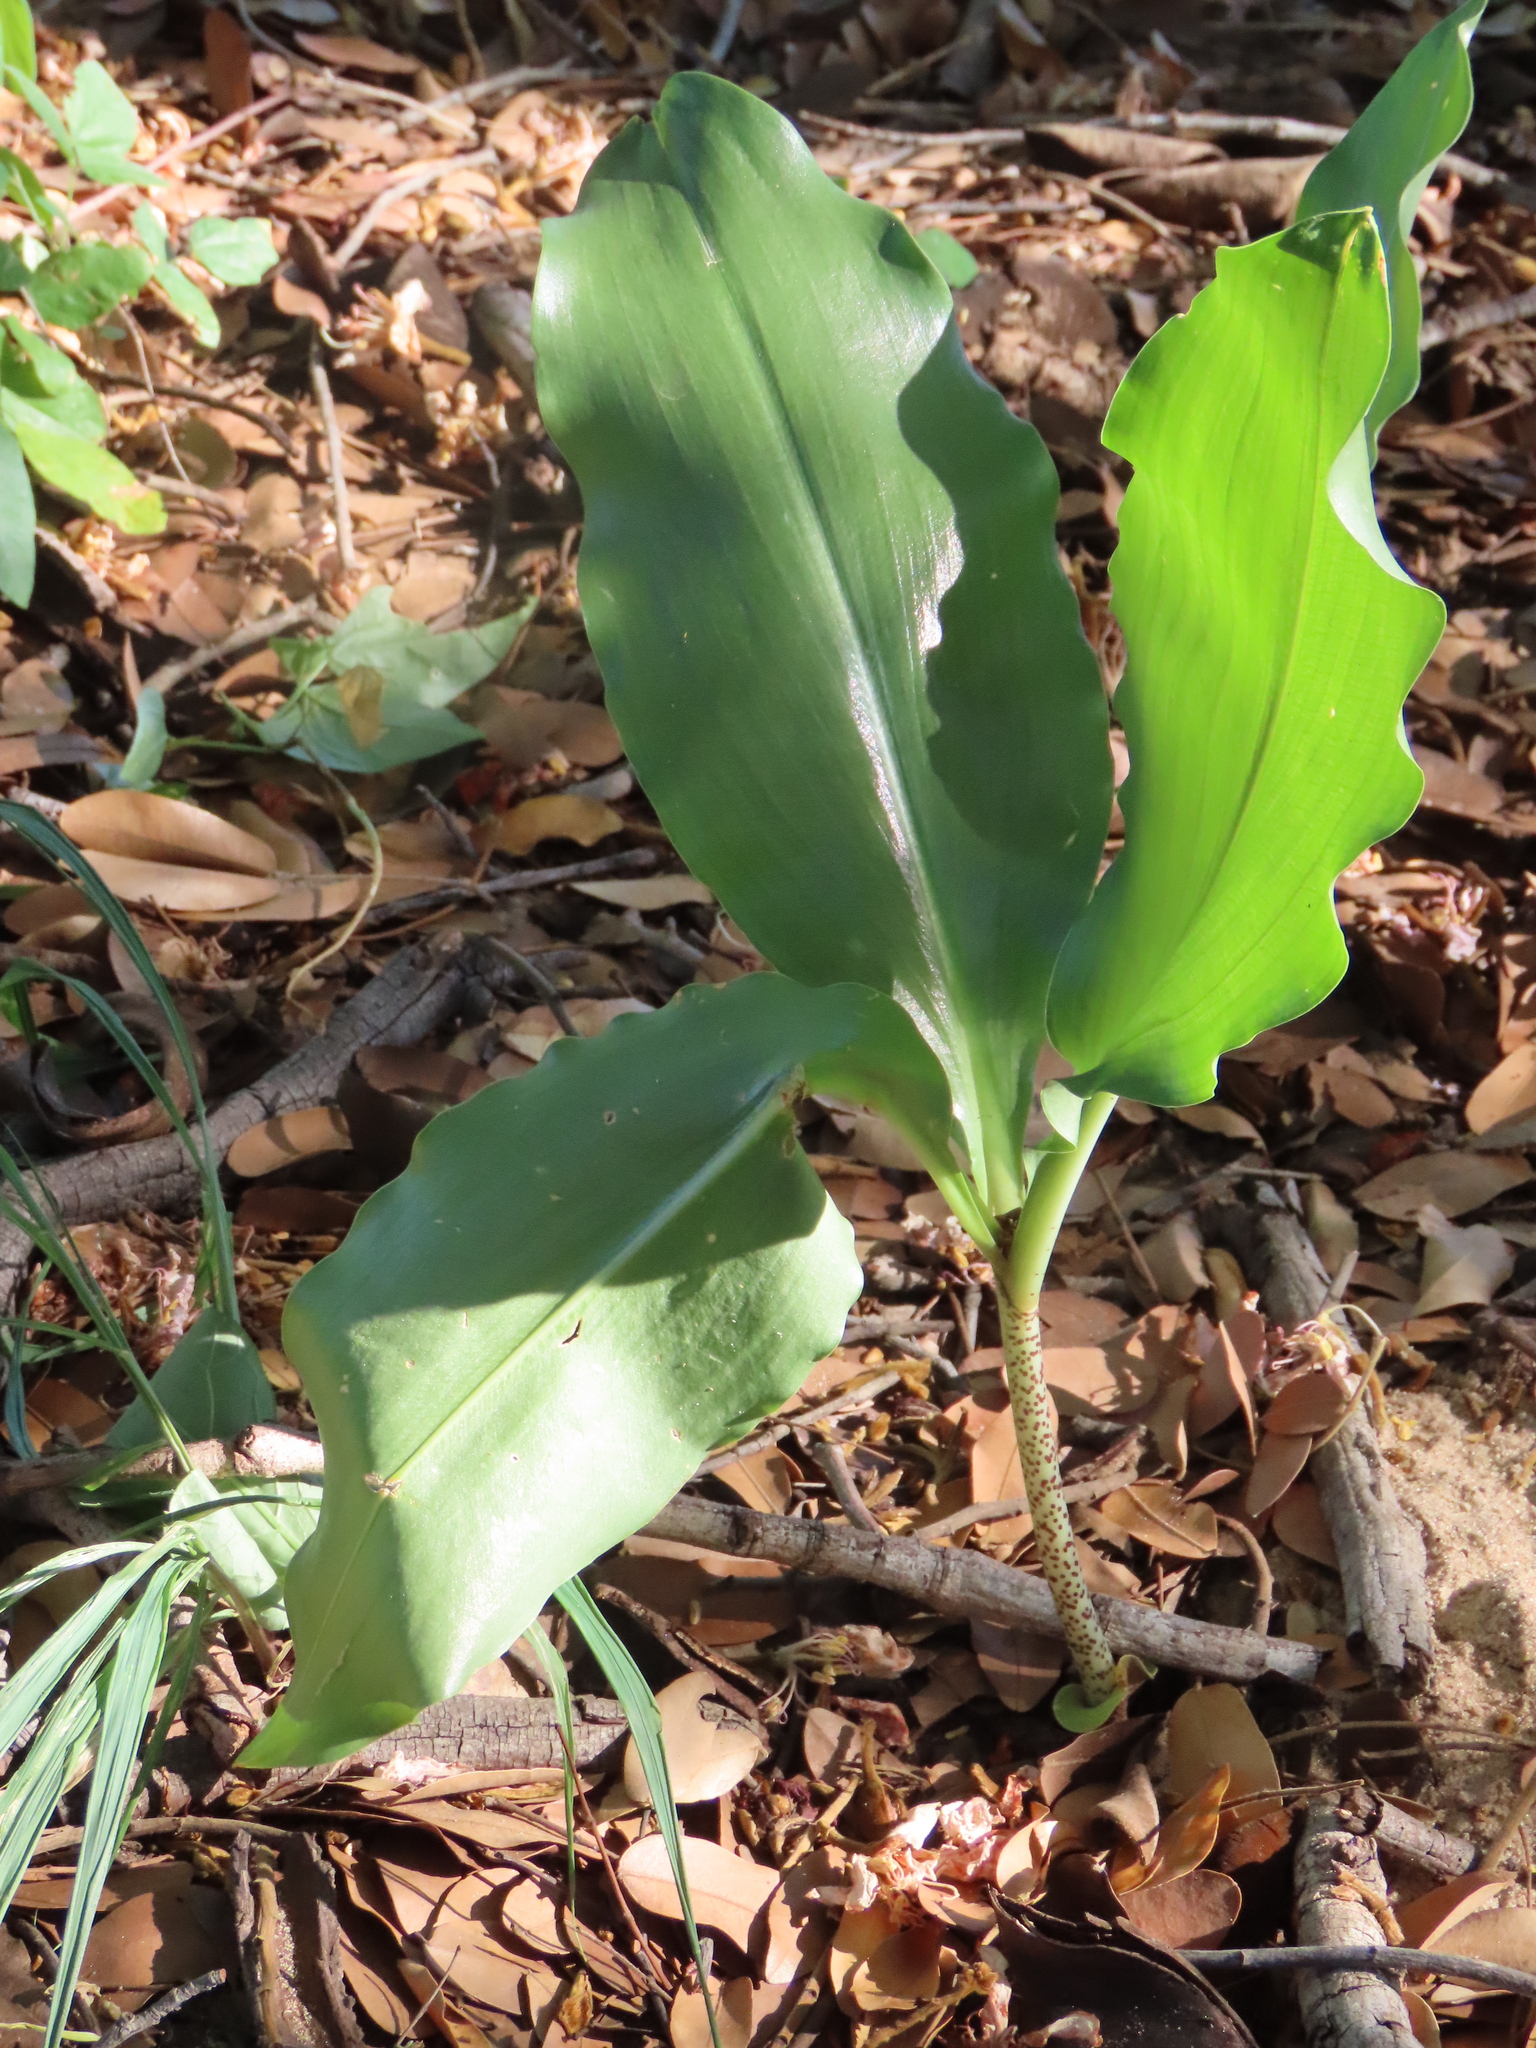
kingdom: Plantae
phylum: Tracheophyta
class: Liliopsida
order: Asparagales
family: Amaryllidaceae
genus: Scadoxus
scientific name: Scadoxus puniceus
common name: Royal-paintbrush
